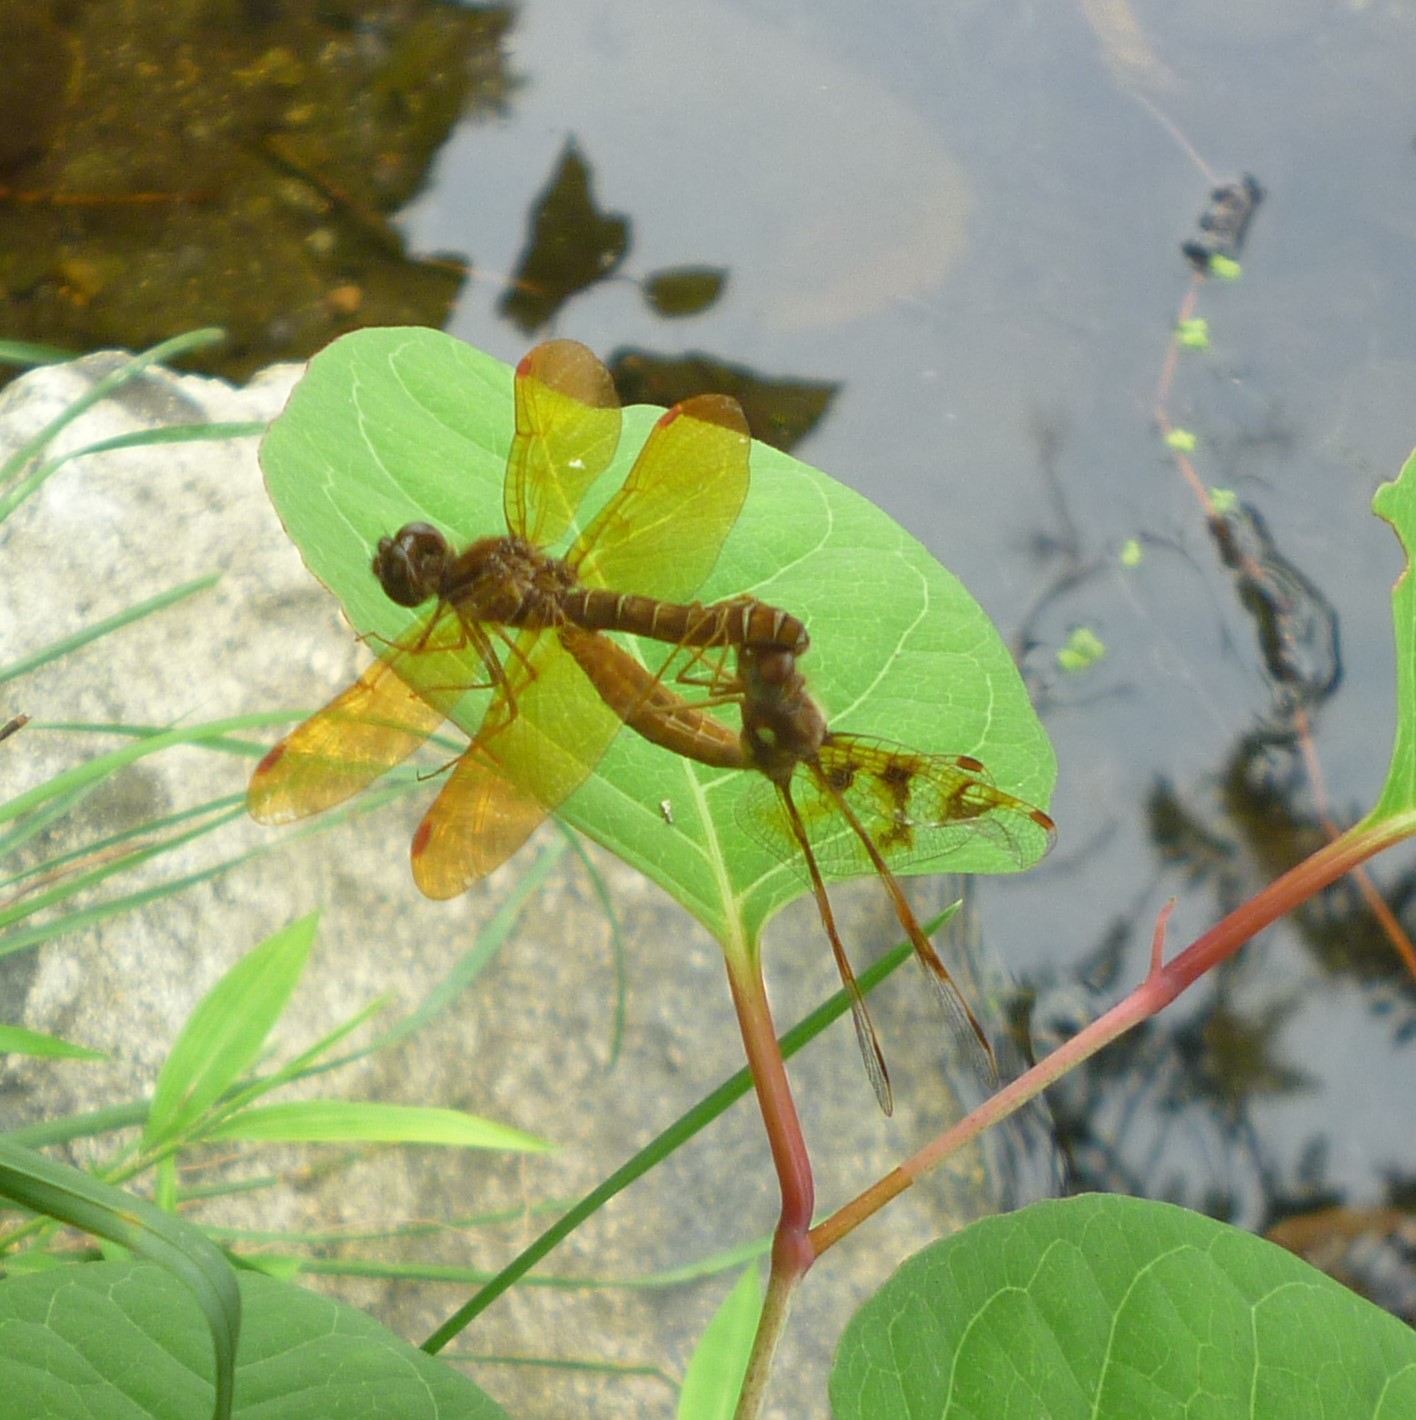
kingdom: Animalia
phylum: Arthropoda
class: Insecta
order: Odonata
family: Libellulidae
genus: Perithemis
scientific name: Perithemis tenera
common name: Eastern amberwing
